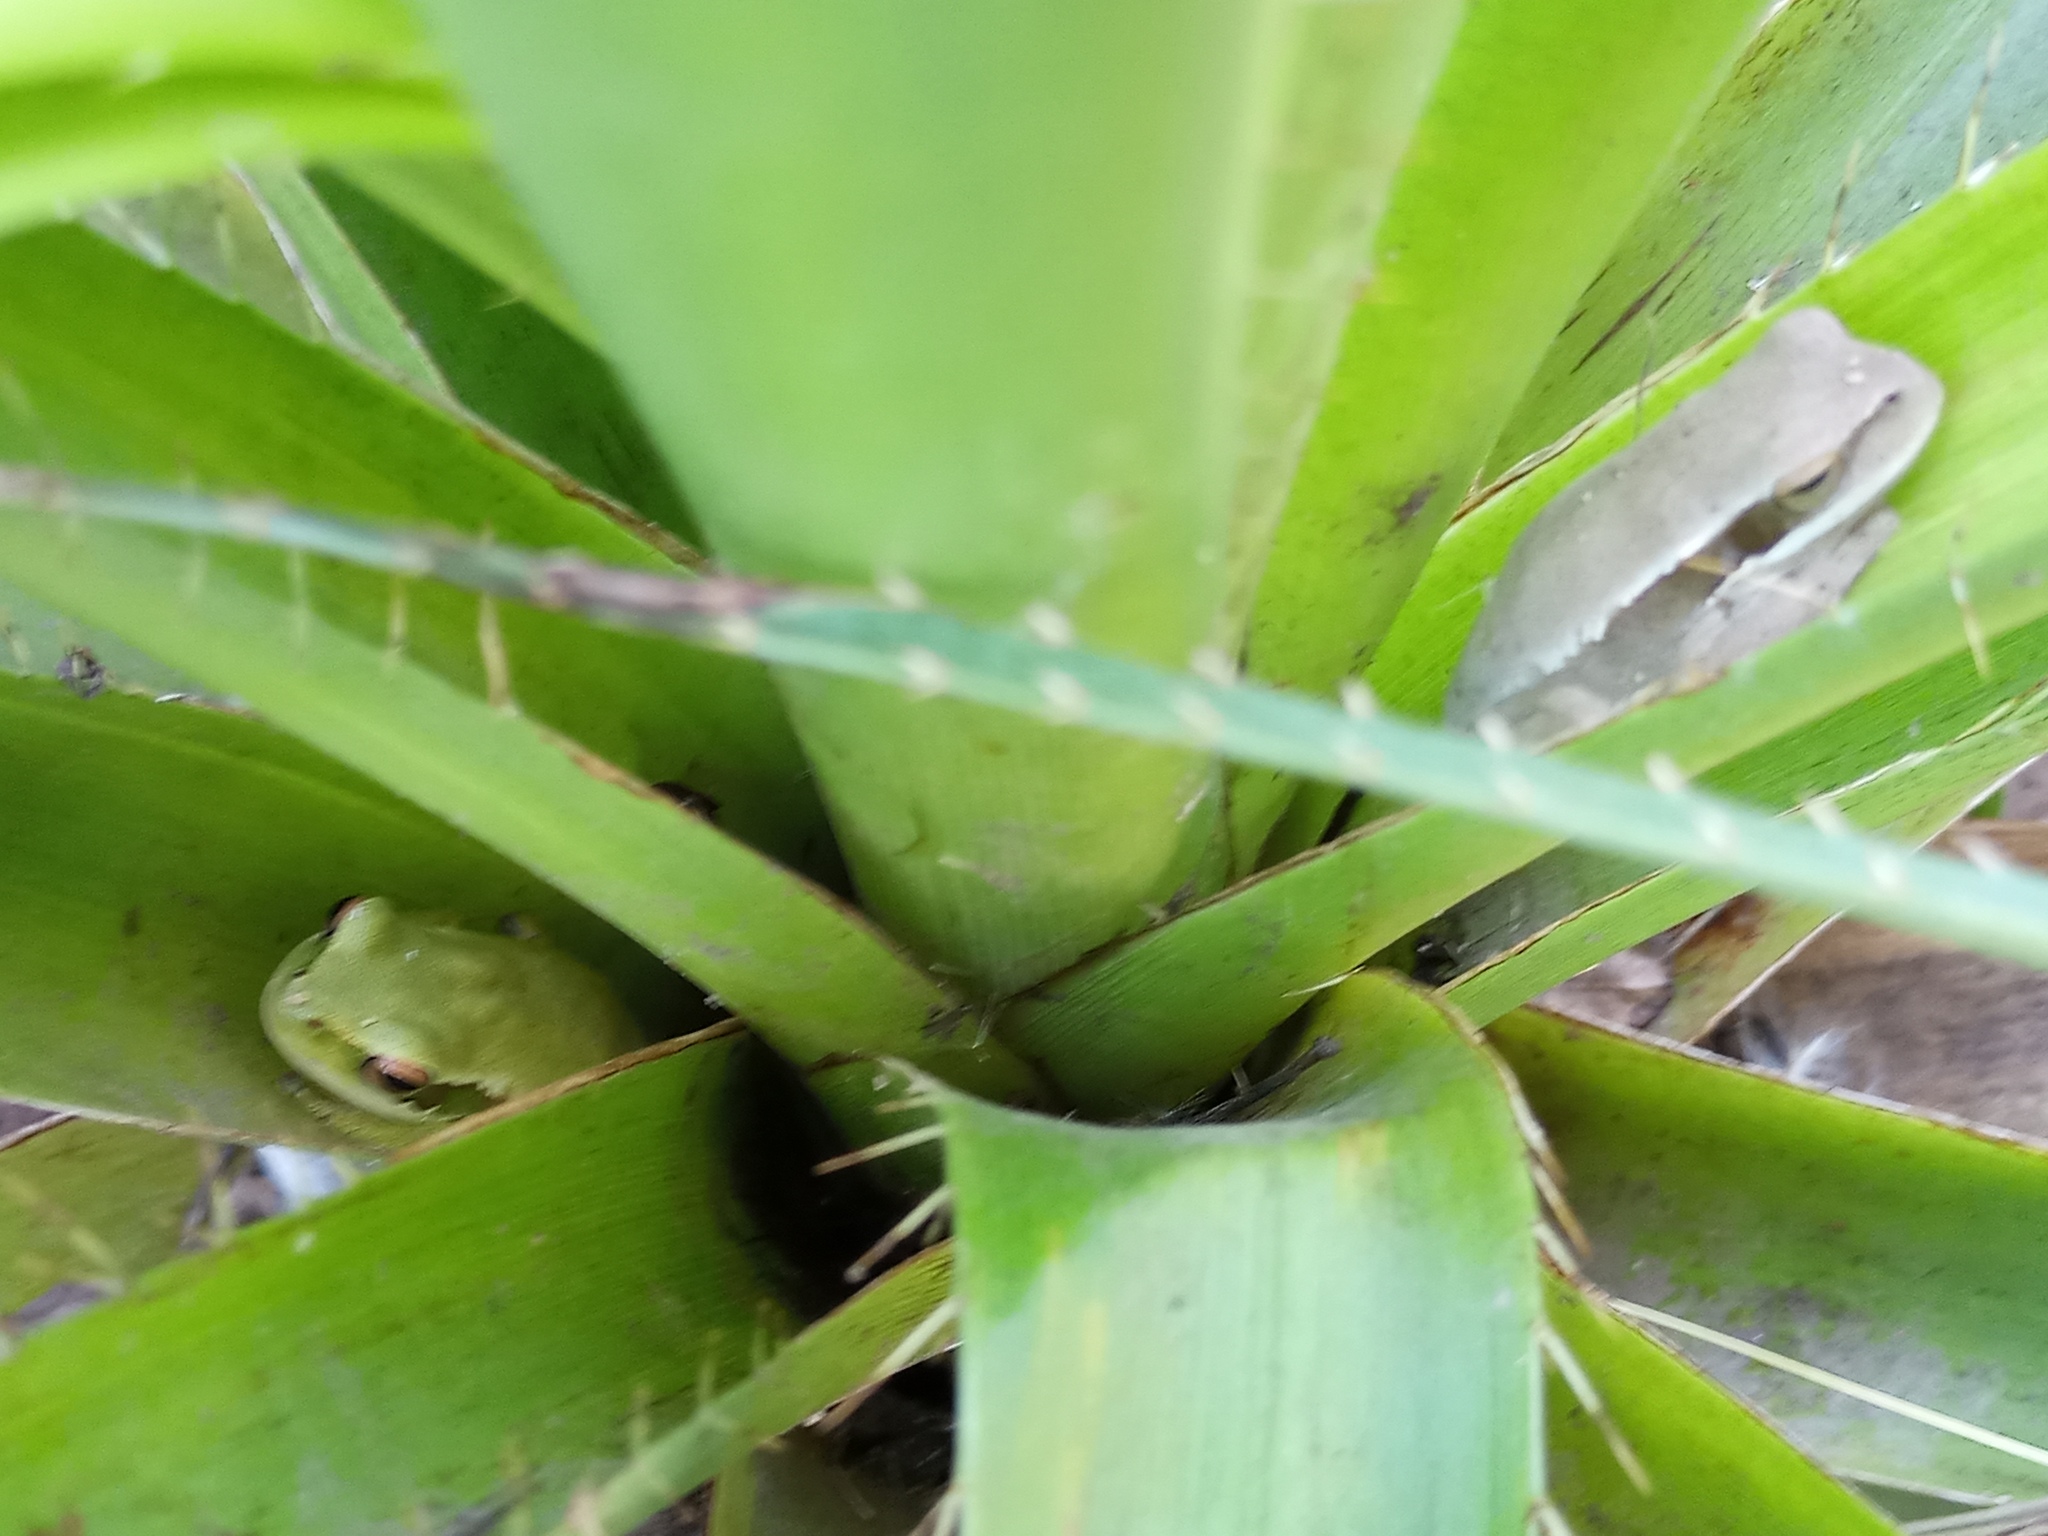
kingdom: Animalia
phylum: Chordata
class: Amphibia
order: Anura
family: Hylidae
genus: Boana
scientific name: Boana pulchella
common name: Montevideo treefrog
